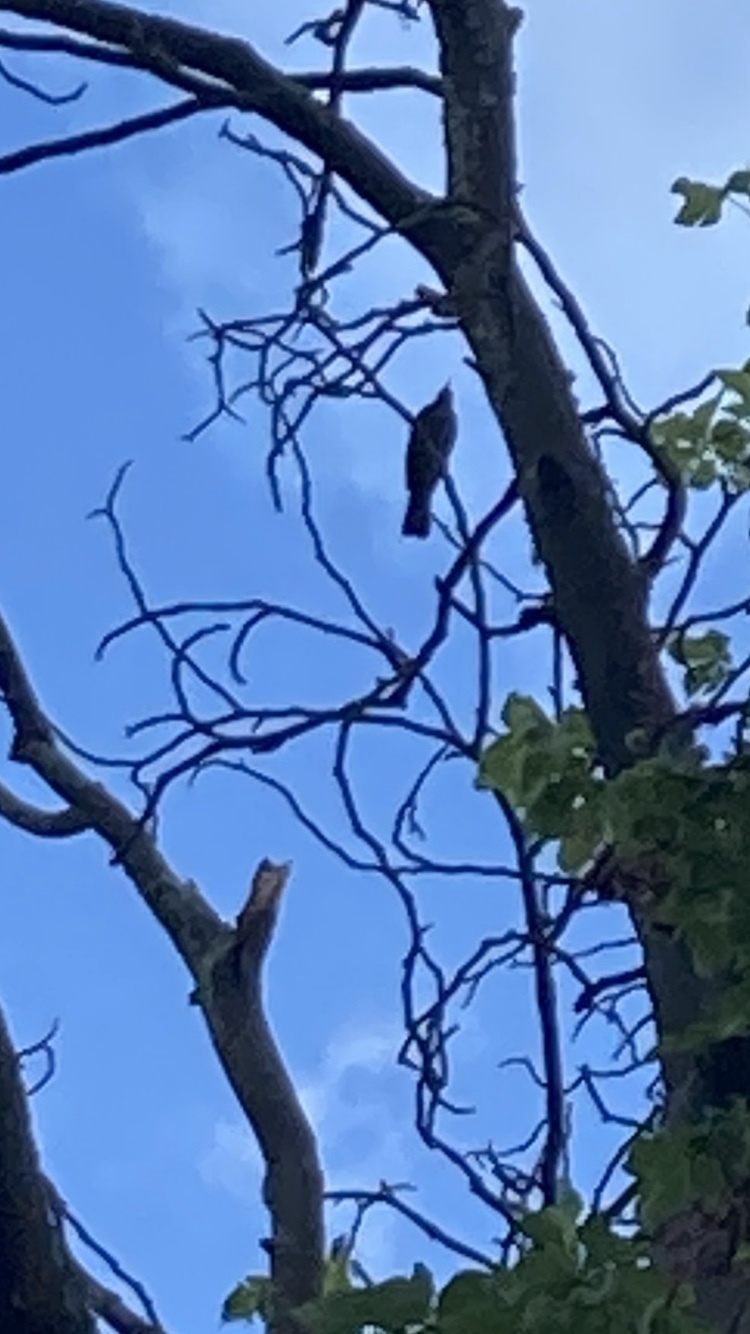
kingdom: Animalia
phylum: Chordata
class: Aves
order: Passeriformes
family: Turdidae
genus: Turdus
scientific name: Turdus merula
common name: Common blackbird
